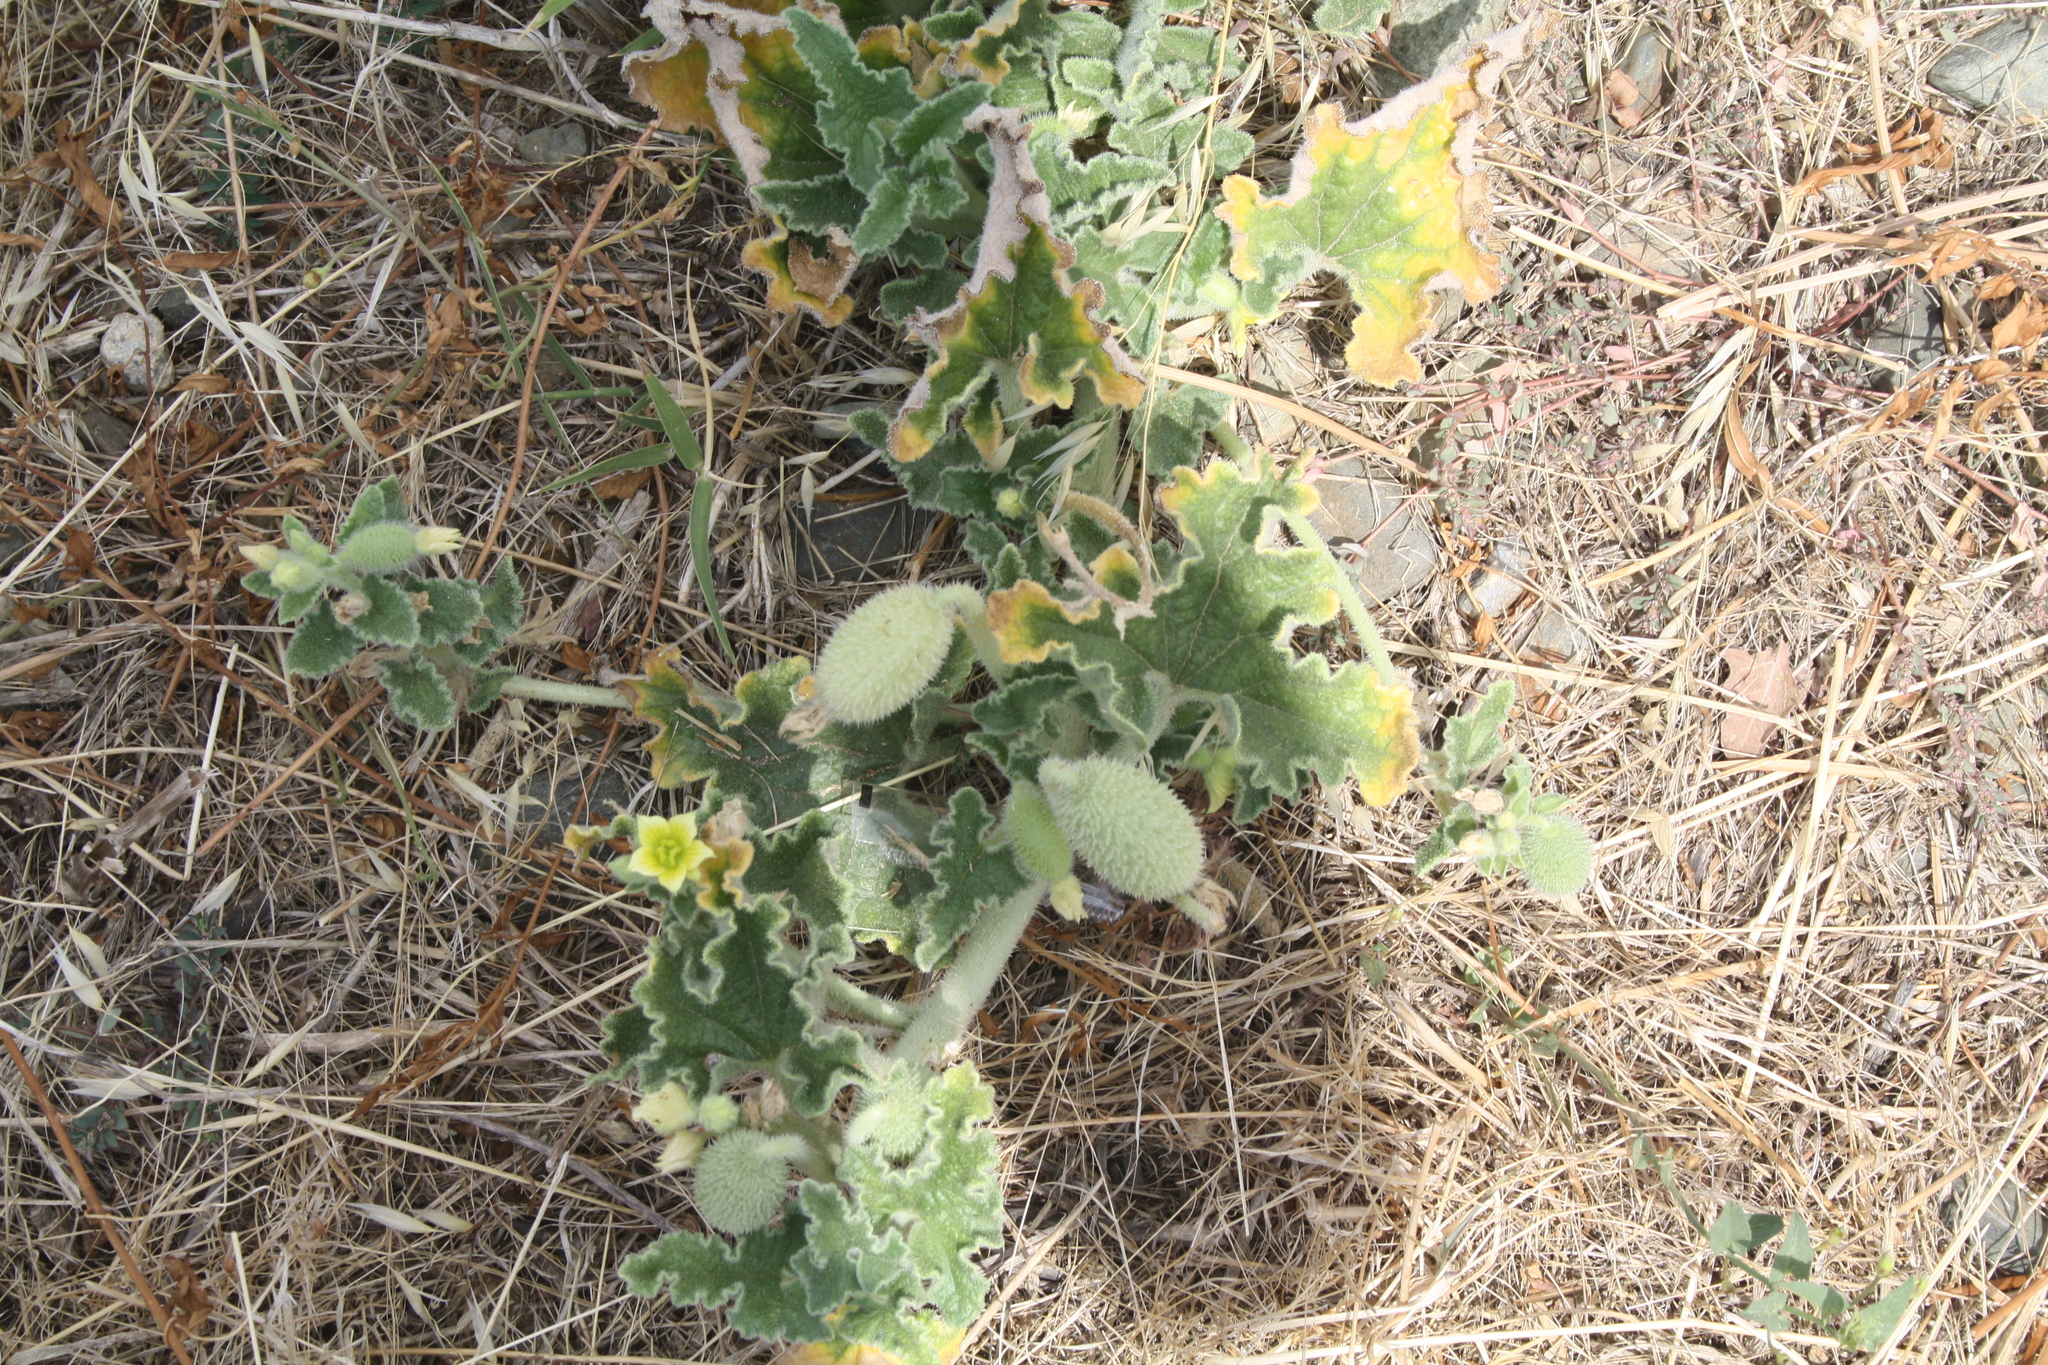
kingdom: Plantae
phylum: Tracheophyta
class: Magnoliopsida
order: Cucurbitales
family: Cucurbitaceae
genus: Ecballium
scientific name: Ecballium elaterium
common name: Squirting cucumber
